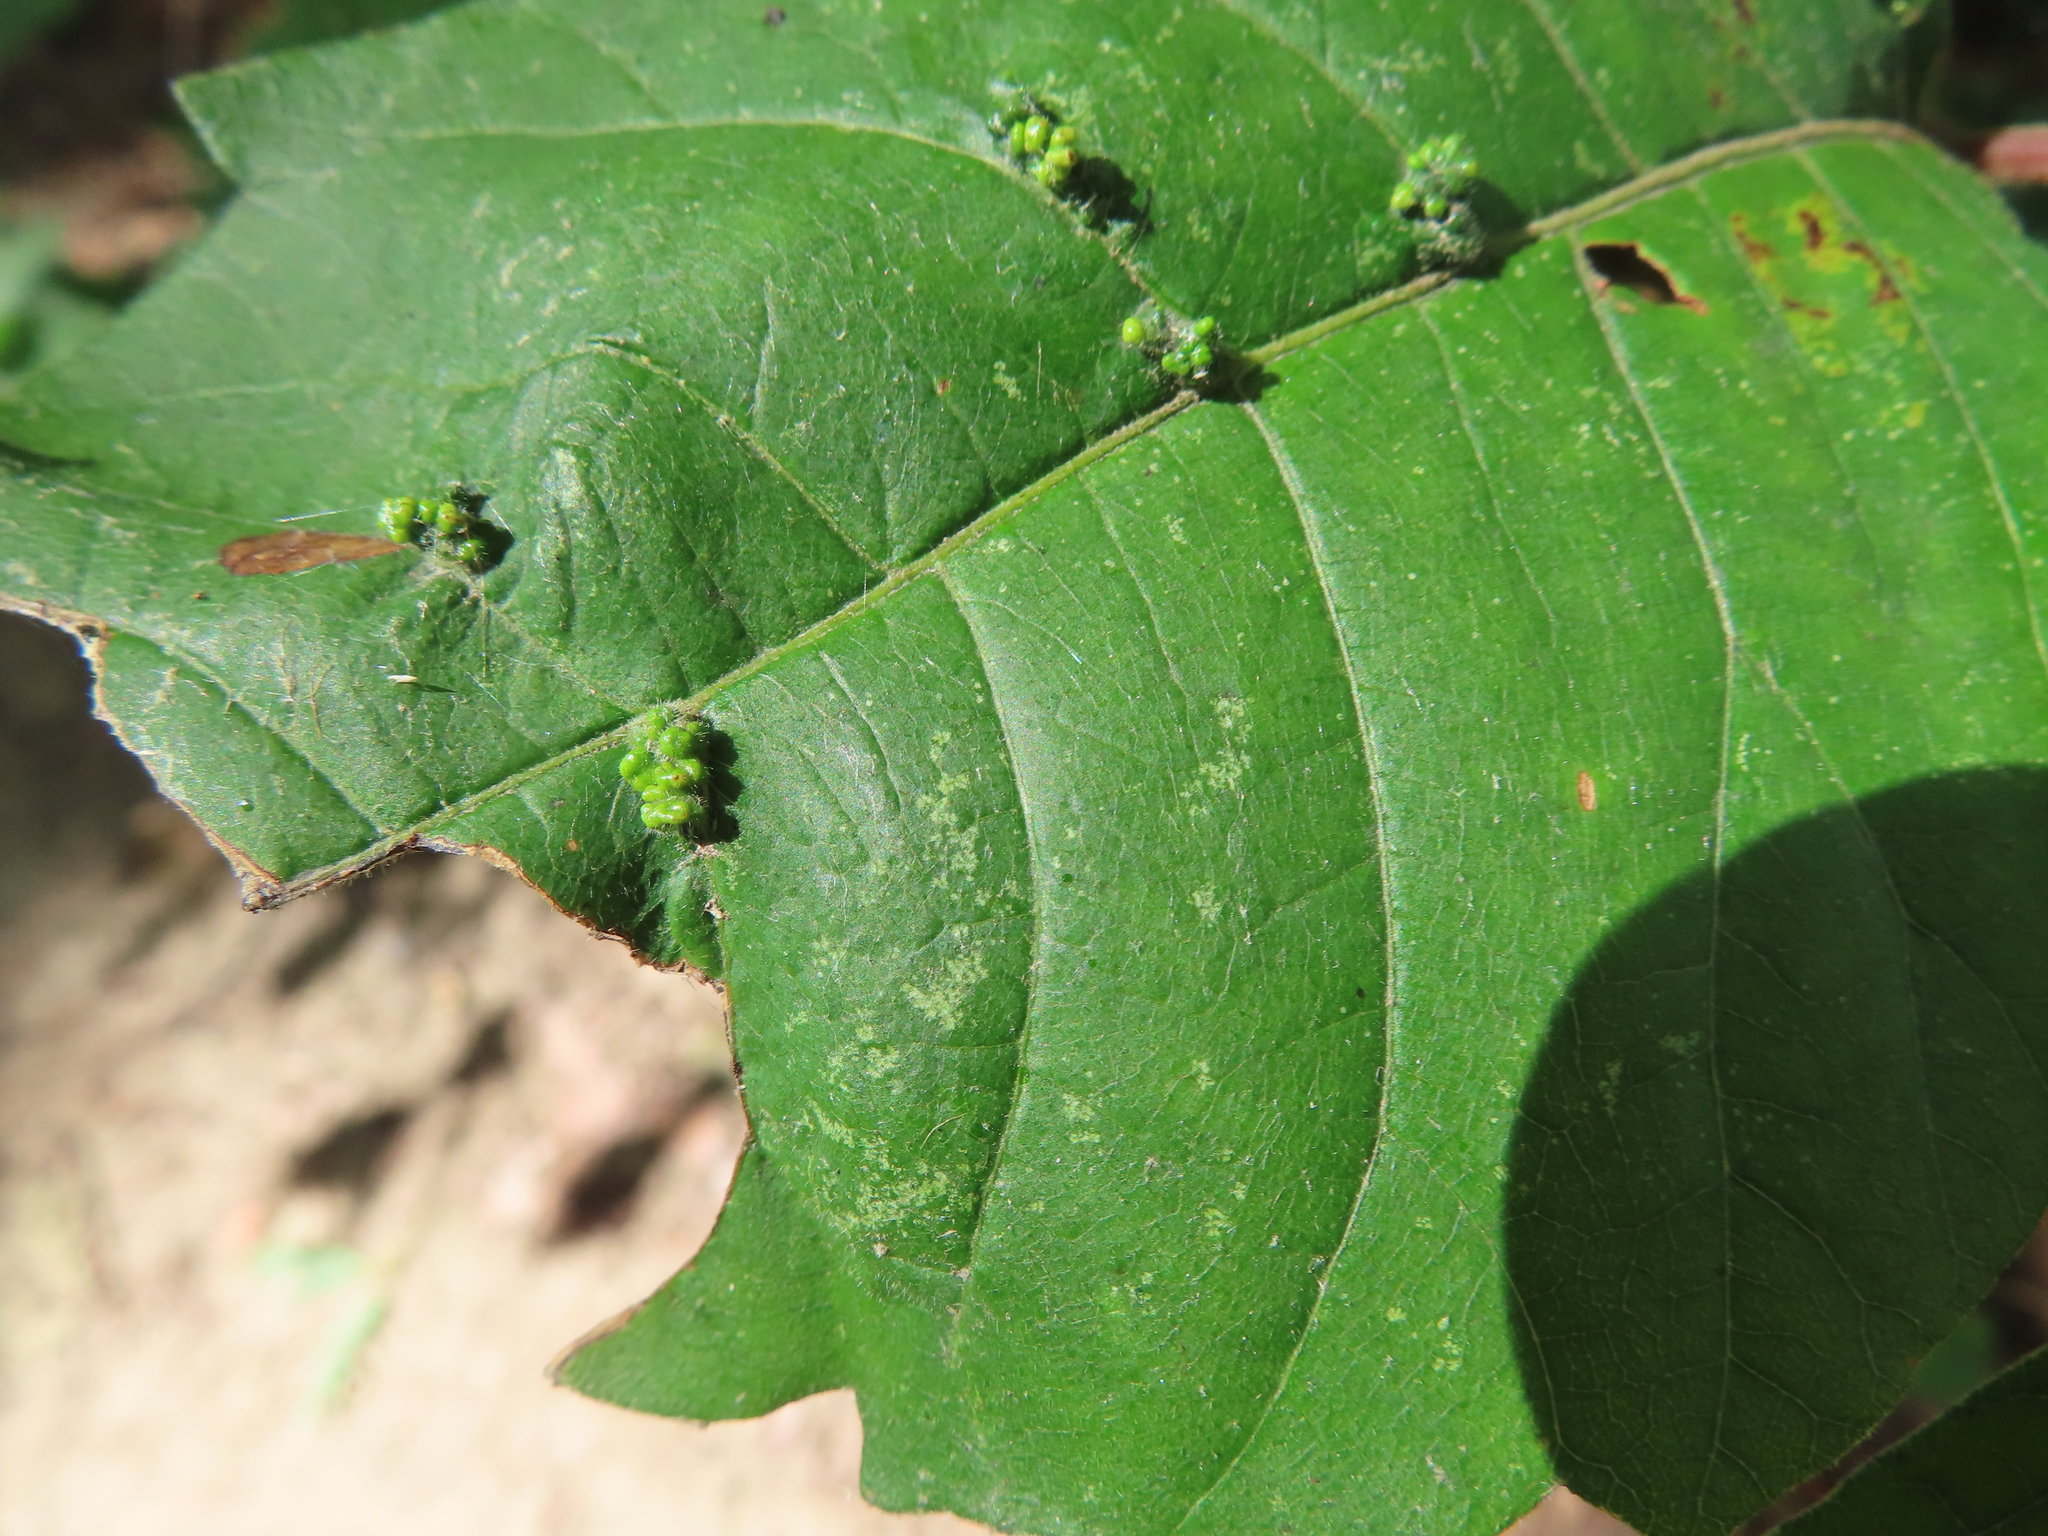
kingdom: Animalia
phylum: Arthropoda
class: Arachnida
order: Trombidiformes
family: Eriophyidae
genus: Aculops
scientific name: Aculops
